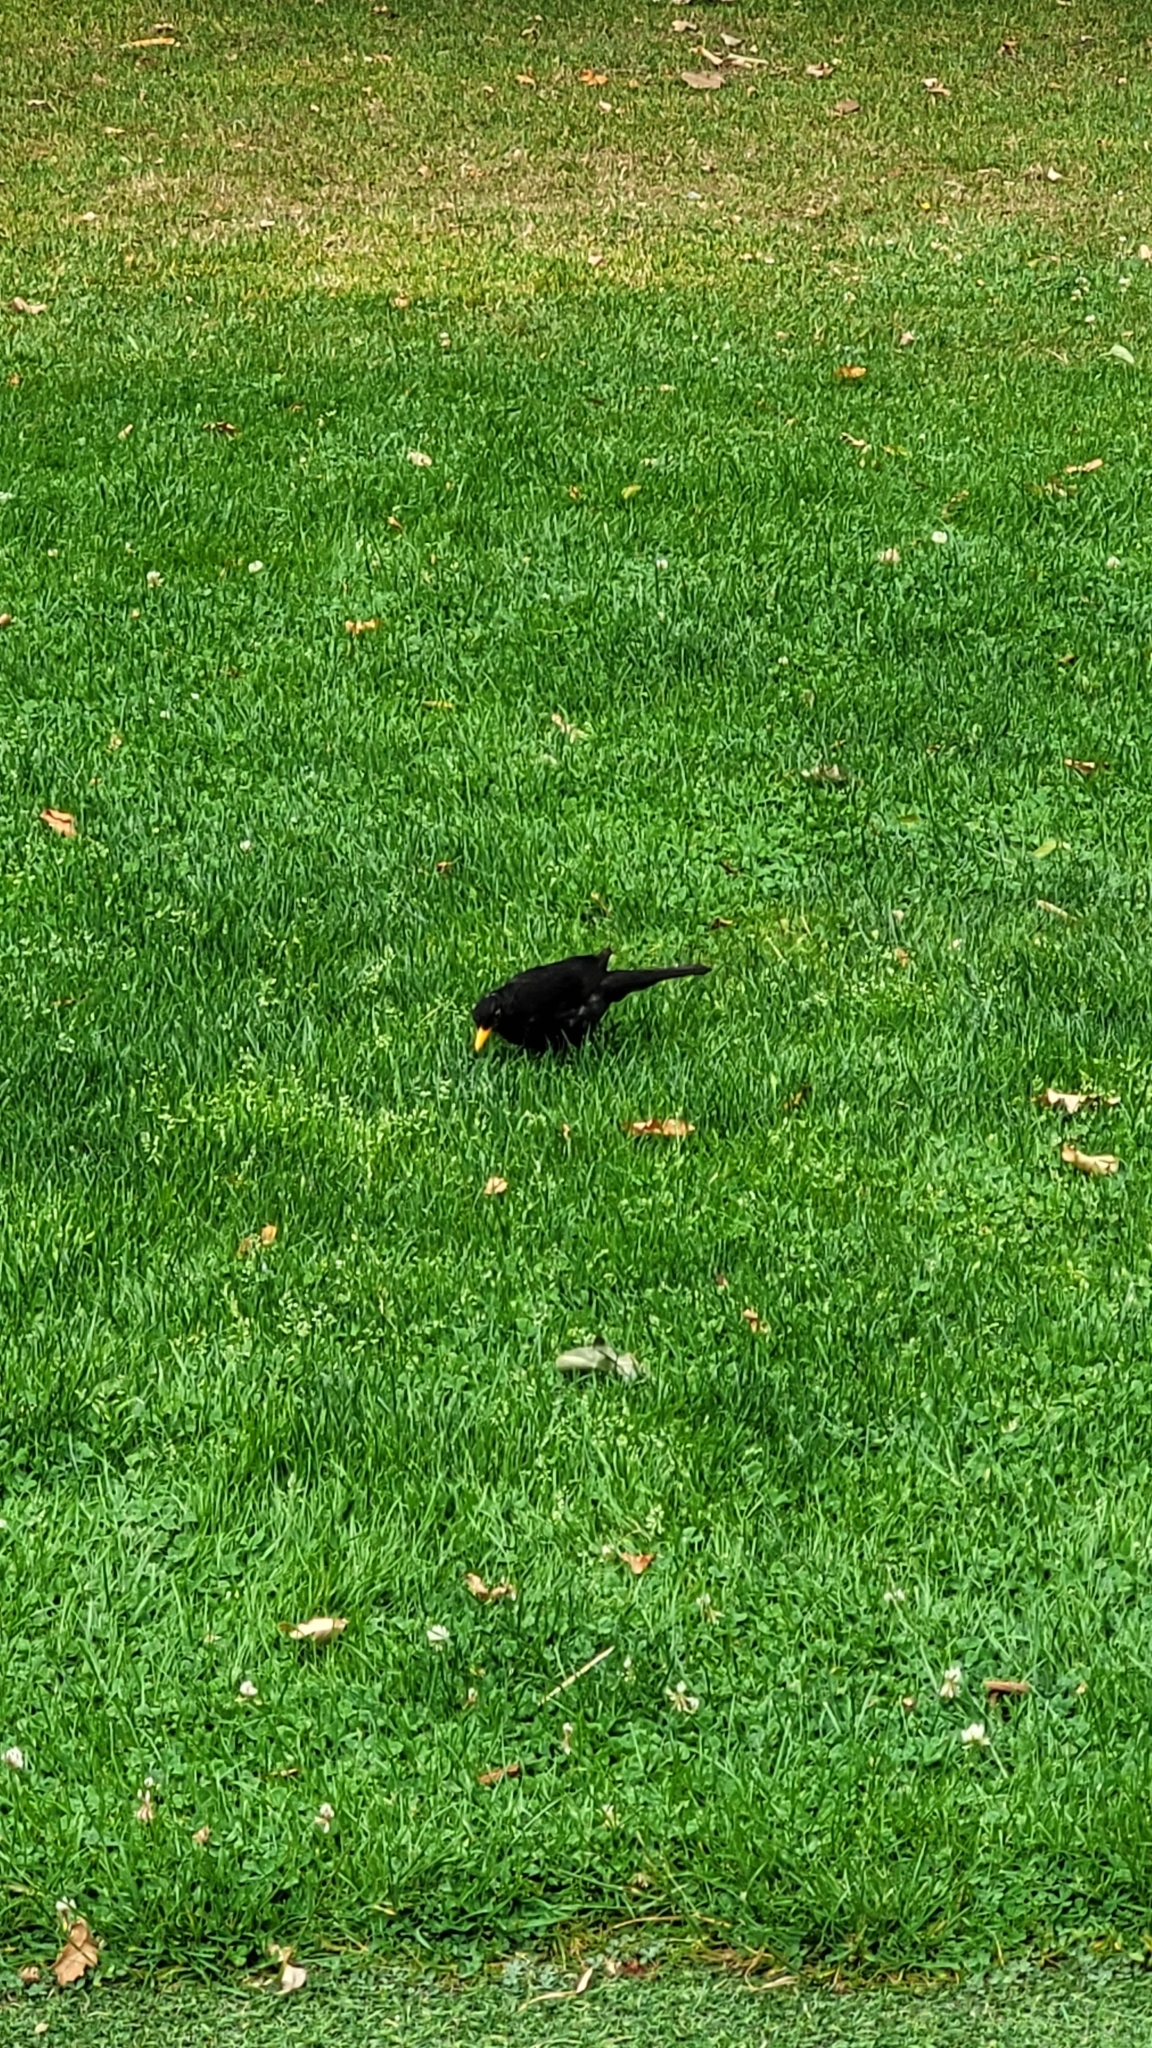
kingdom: Animalia
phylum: Chordata
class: Aves
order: Passeriformes
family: Turdidae
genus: Turdus
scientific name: Turdus merula
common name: Common blackbird
